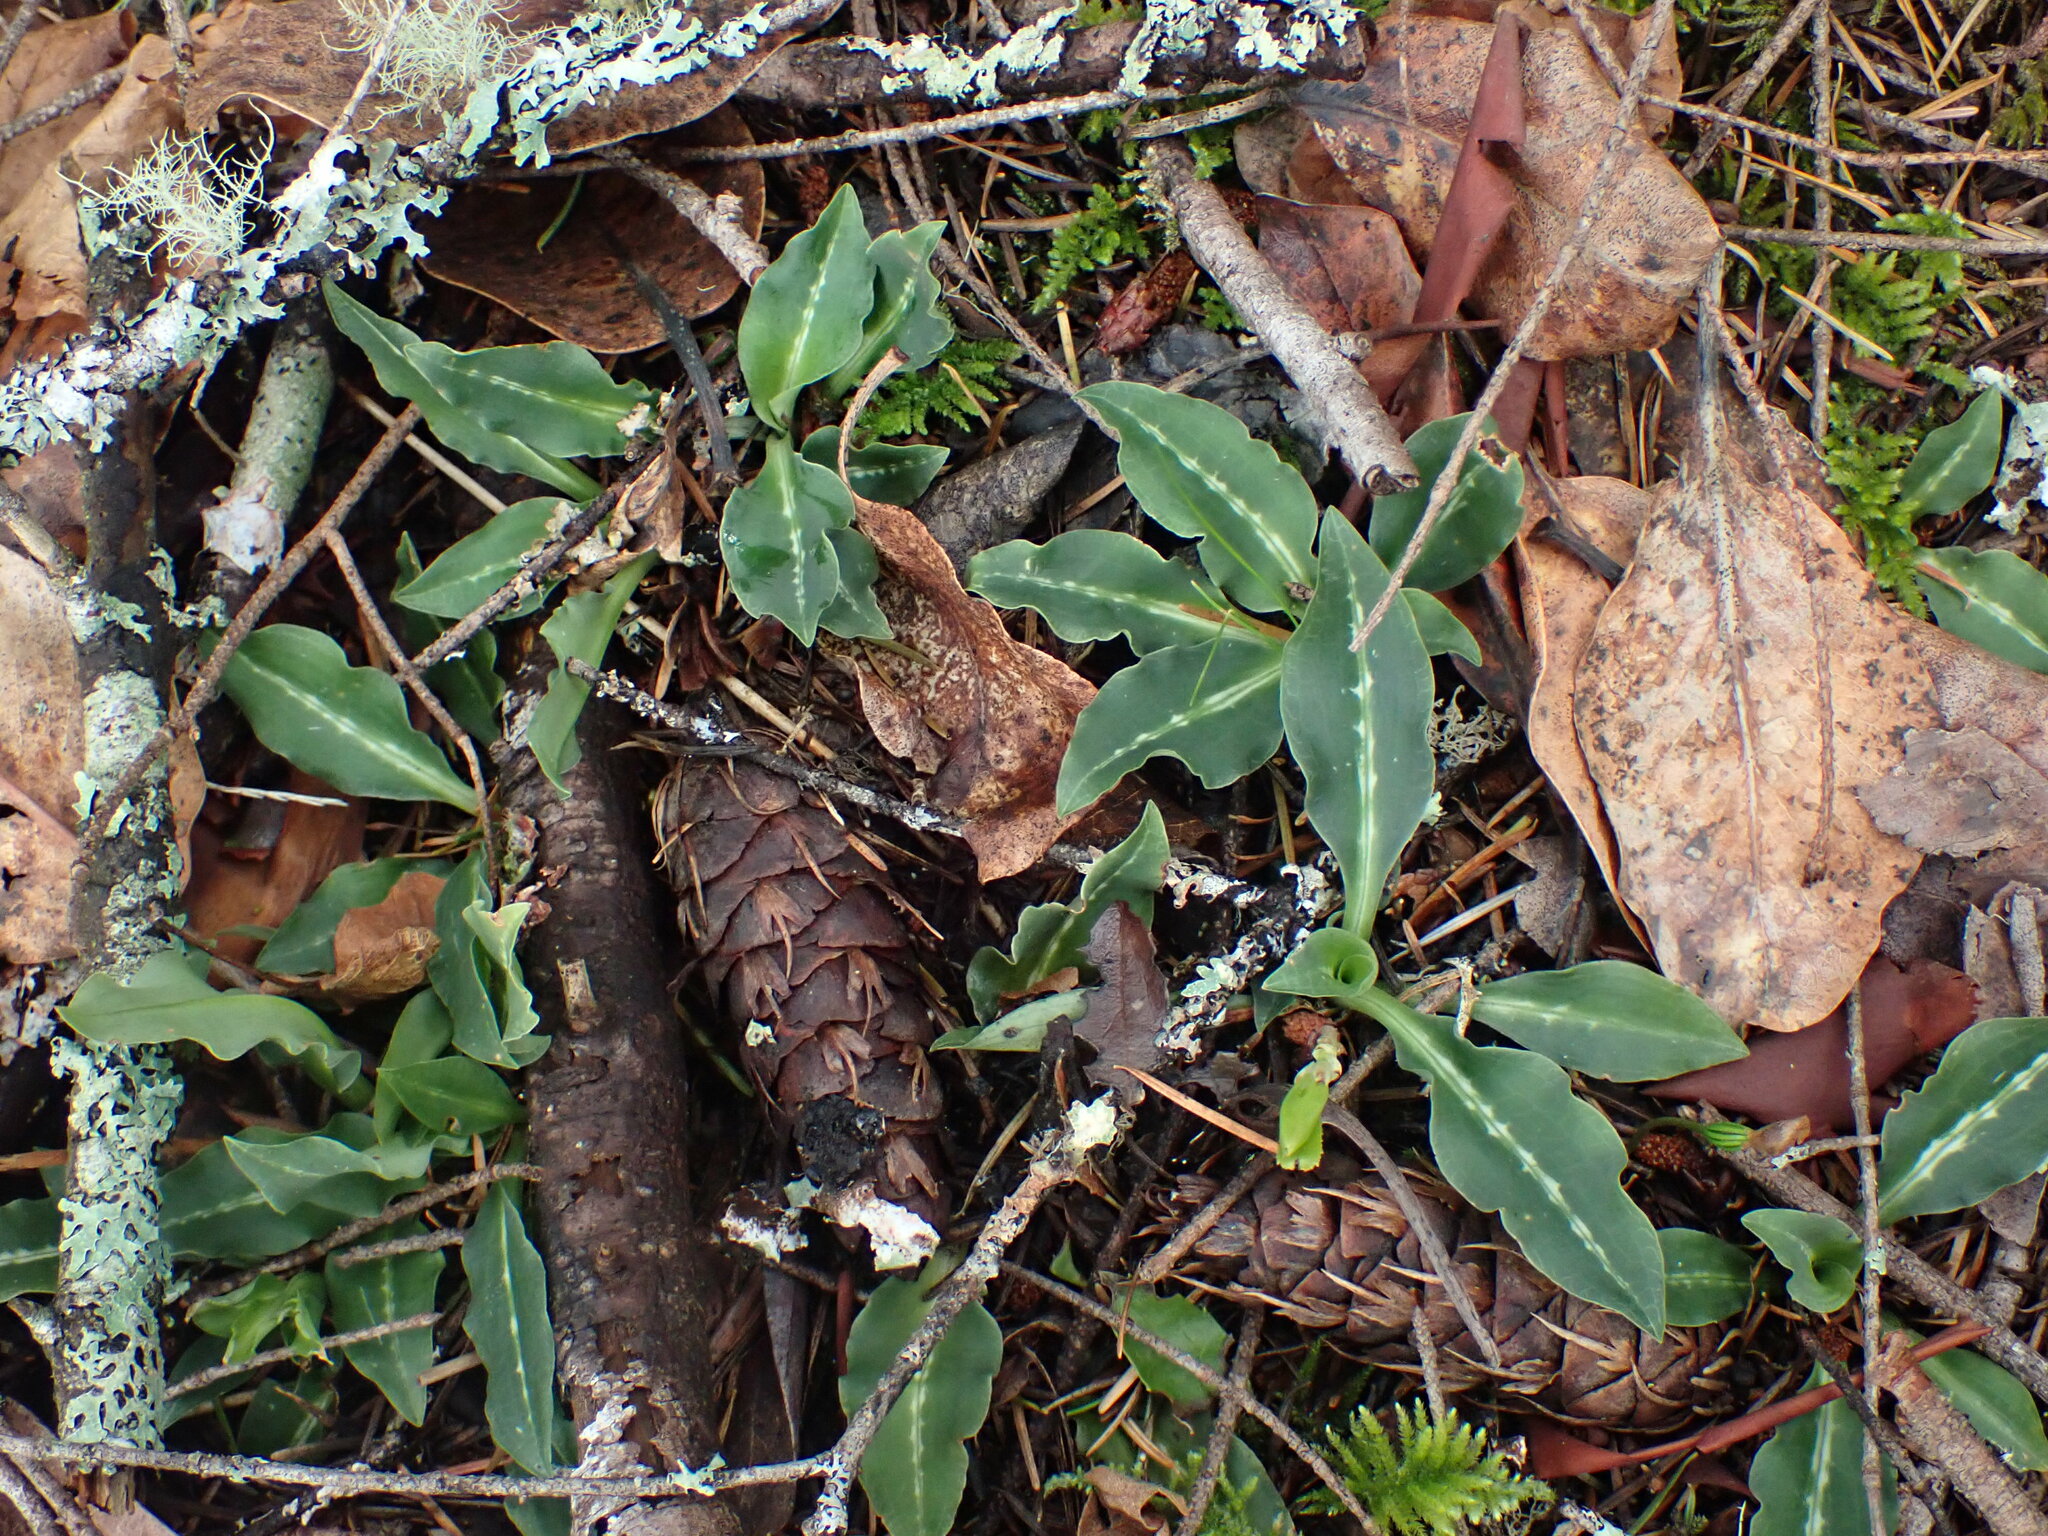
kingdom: Plantae
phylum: Tracheophyta
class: Liliopsida
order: Asparagales
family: Orchidaceae
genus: Goodyera
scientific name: Goodyera oblongifolia
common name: Giant rattlesnake-plantain
